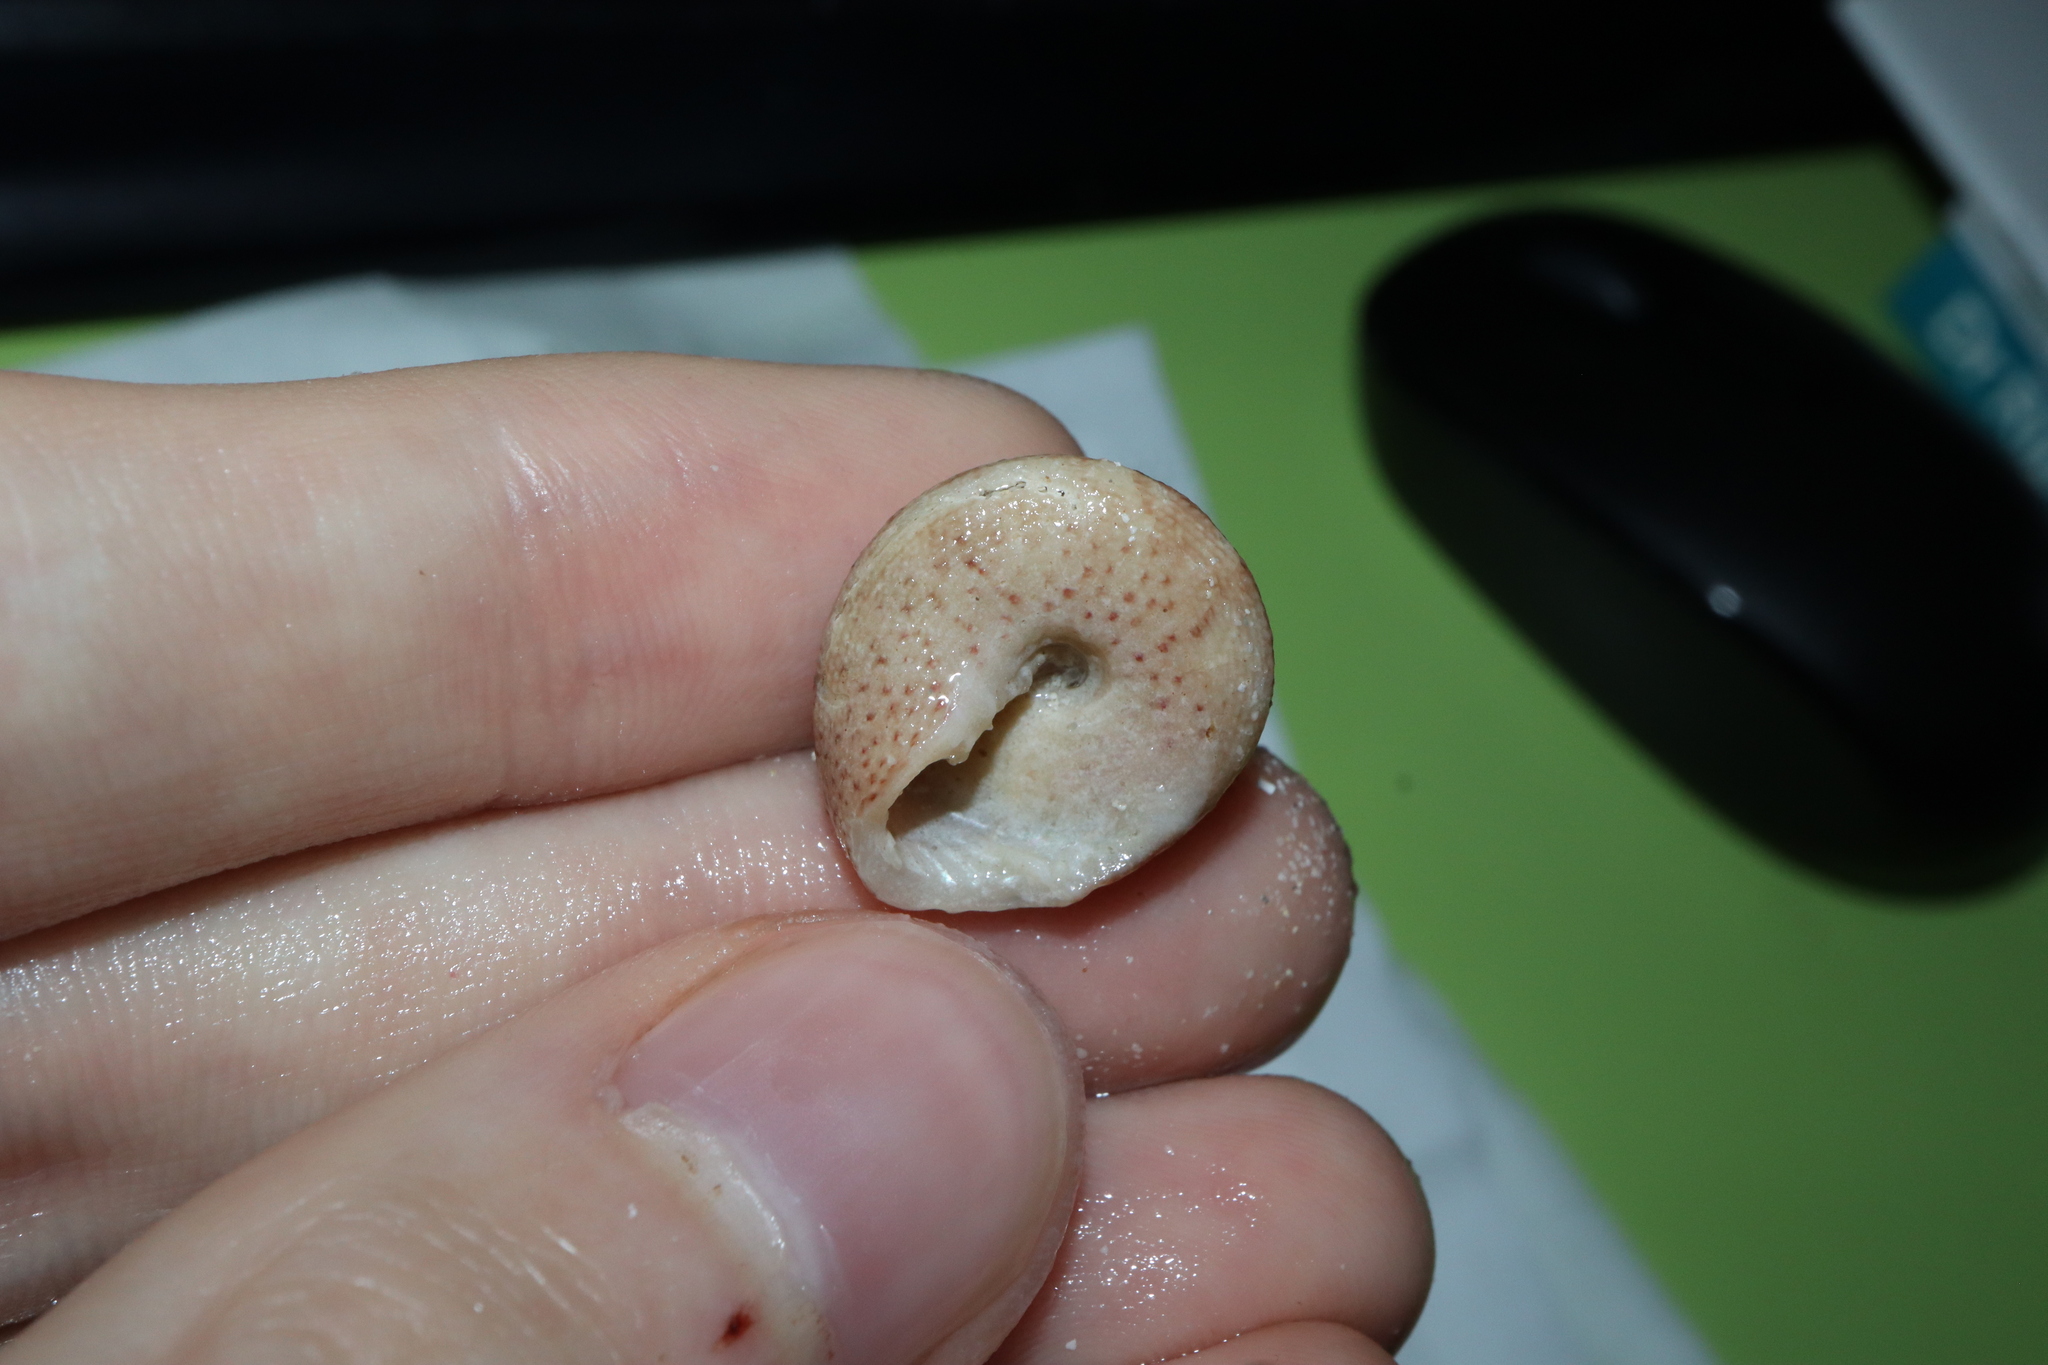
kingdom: Animalia
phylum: Mollusca
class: Gastropoda
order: Trochida
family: Trochidae
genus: Clanculus
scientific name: Clanculus undatus
